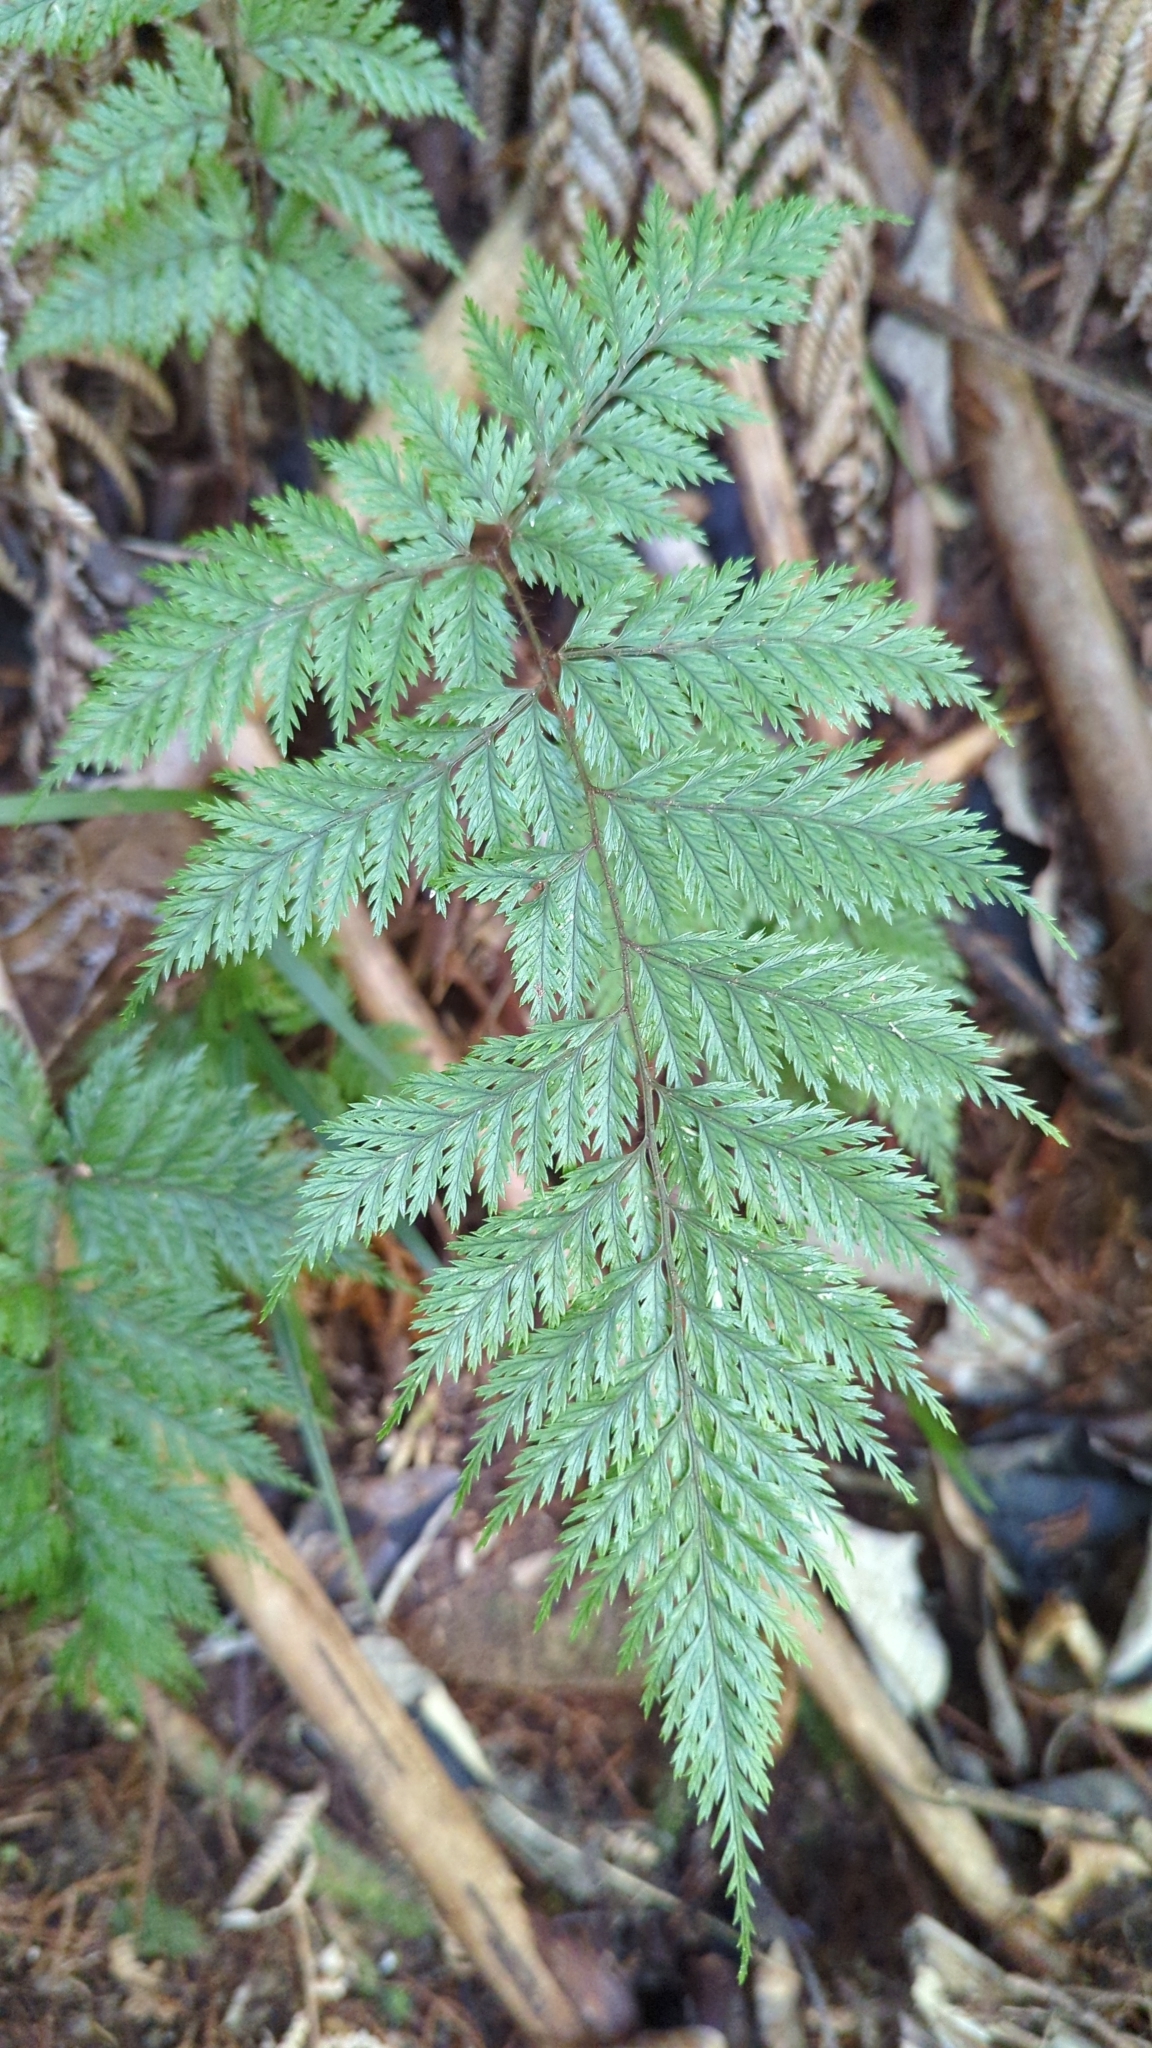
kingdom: Plantae
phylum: Tracheophyta
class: Polypodiopsida
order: Polypodiales
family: Dryopteridaceae
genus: Lastreopsis
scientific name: Lastreopsis hispida
